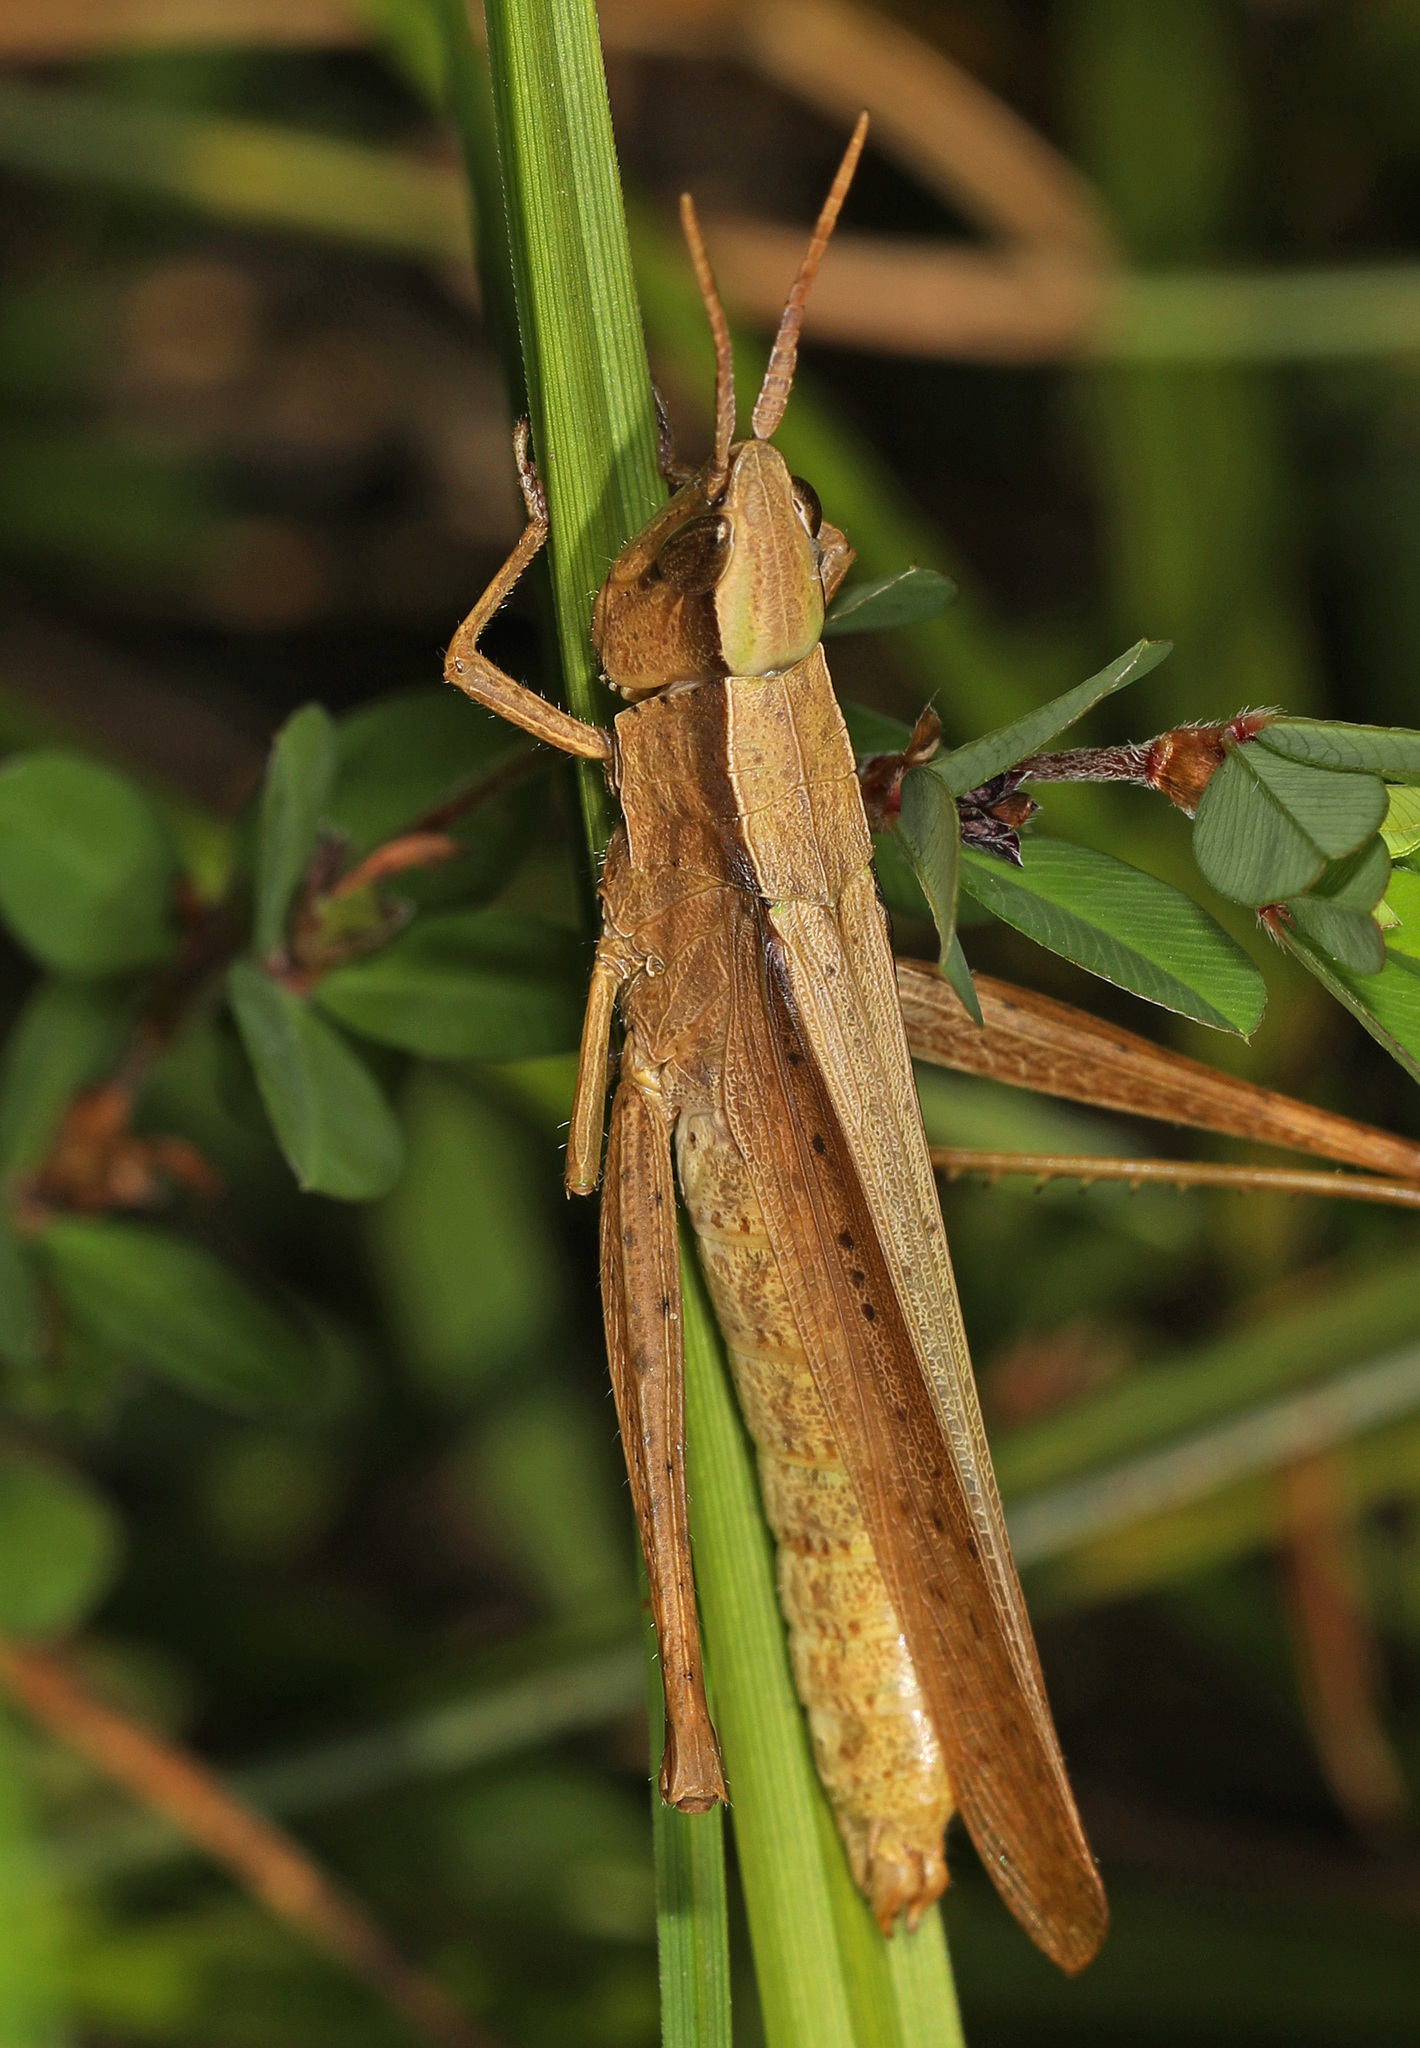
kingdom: Animalia
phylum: Arthropoda
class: Insecta
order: Orthoptera
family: Acrididae
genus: Metaleptea
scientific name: Metaleptea brevicornis
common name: Clipped-wing grasshopper
